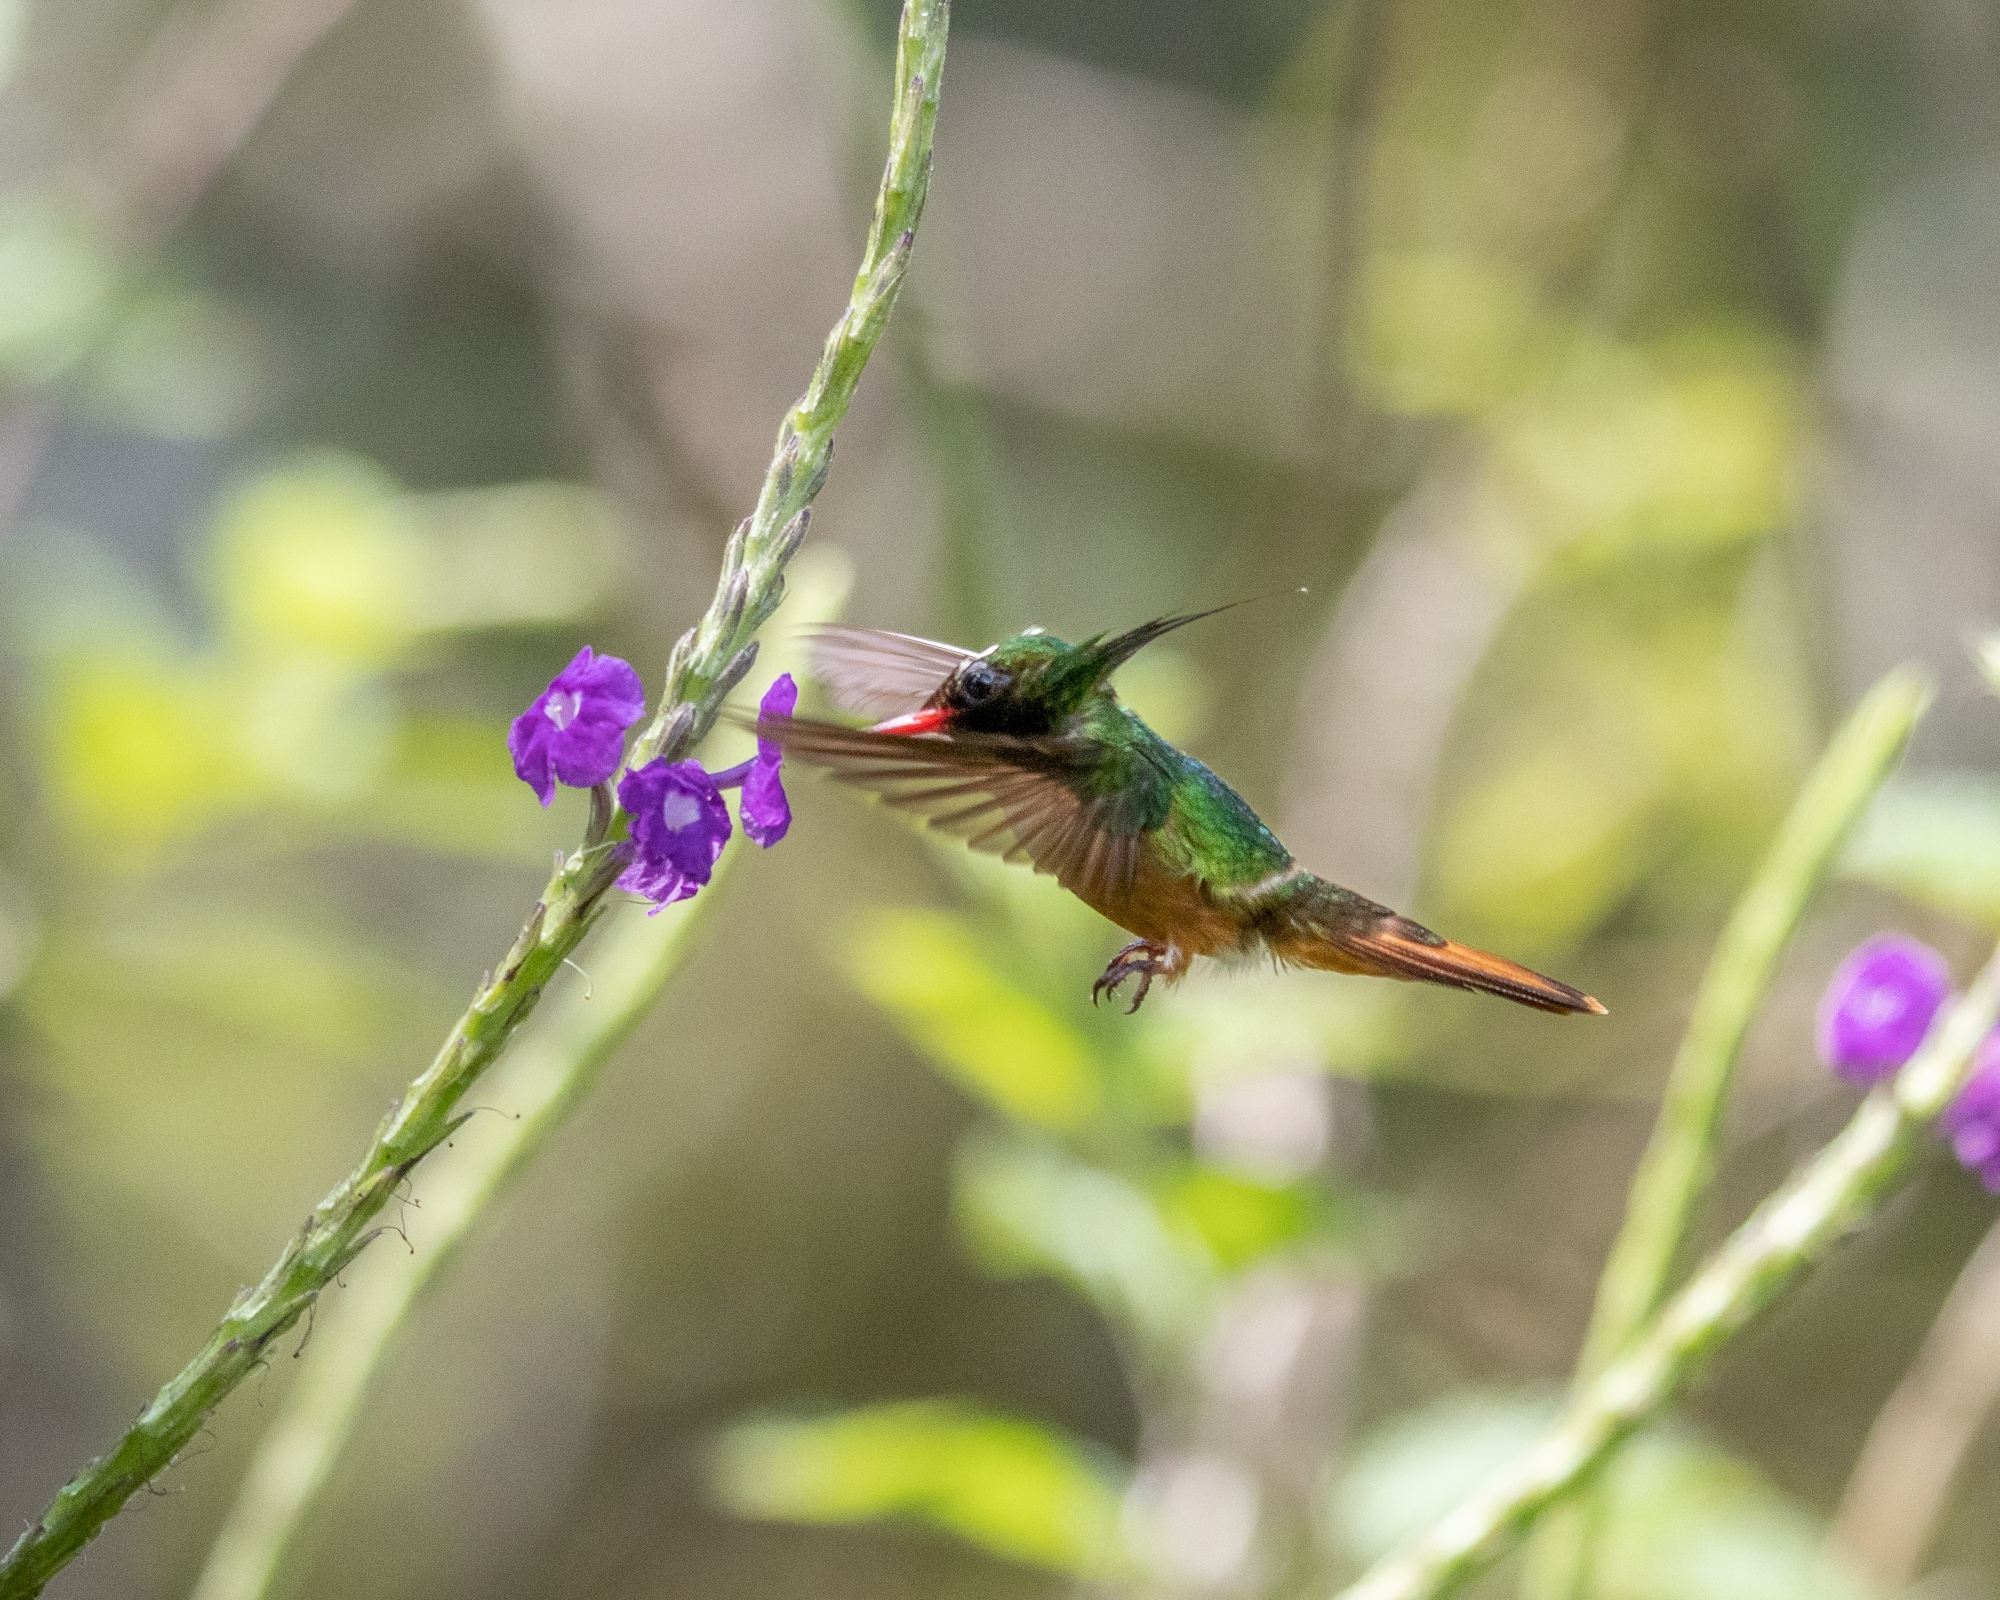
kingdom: Animalia
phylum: Chordata
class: Aves
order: Apodiformes
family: Trochilidae
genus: Lophornis
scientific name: Lophornis adorabilis
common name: White-crested coquette
